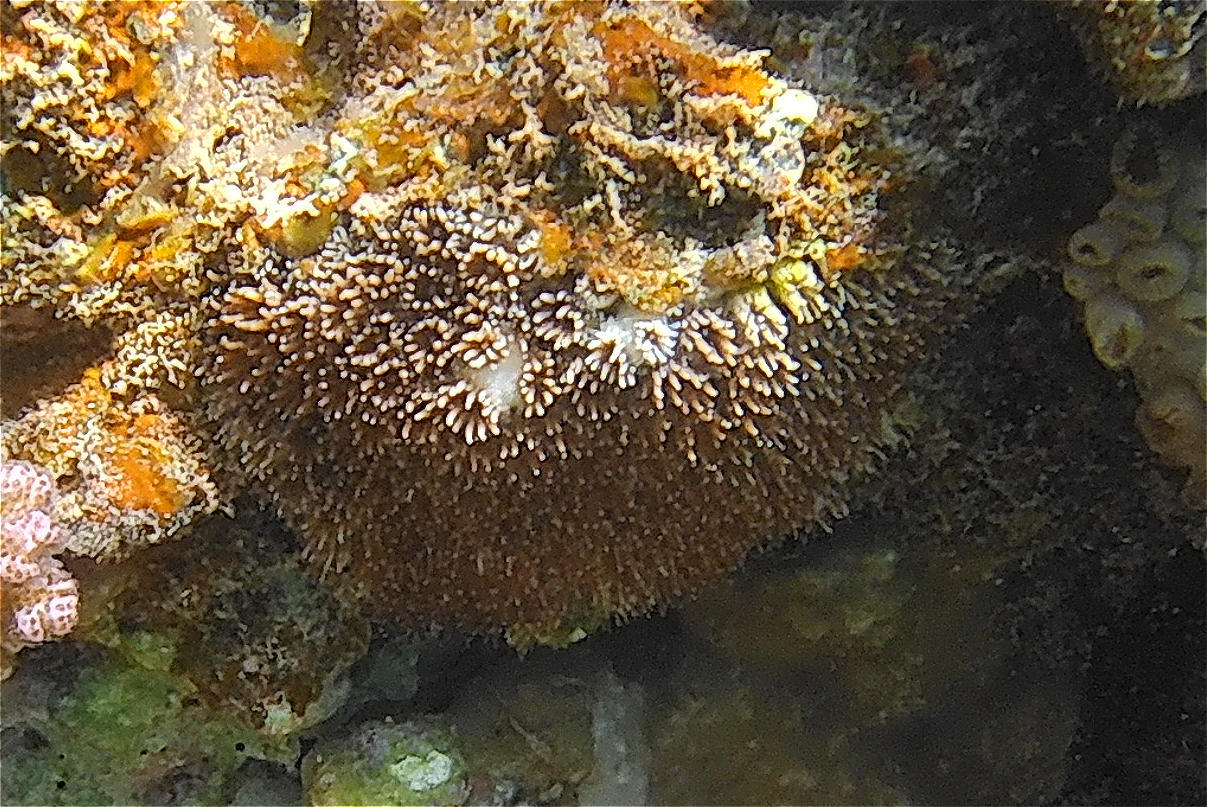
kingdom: Animalia
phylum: Cnidaria
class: Anthozoa
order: Scleractinia
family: Euphylliidae
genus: Galaxea
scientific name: Galaxea fascicularis
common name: Octopus coral
